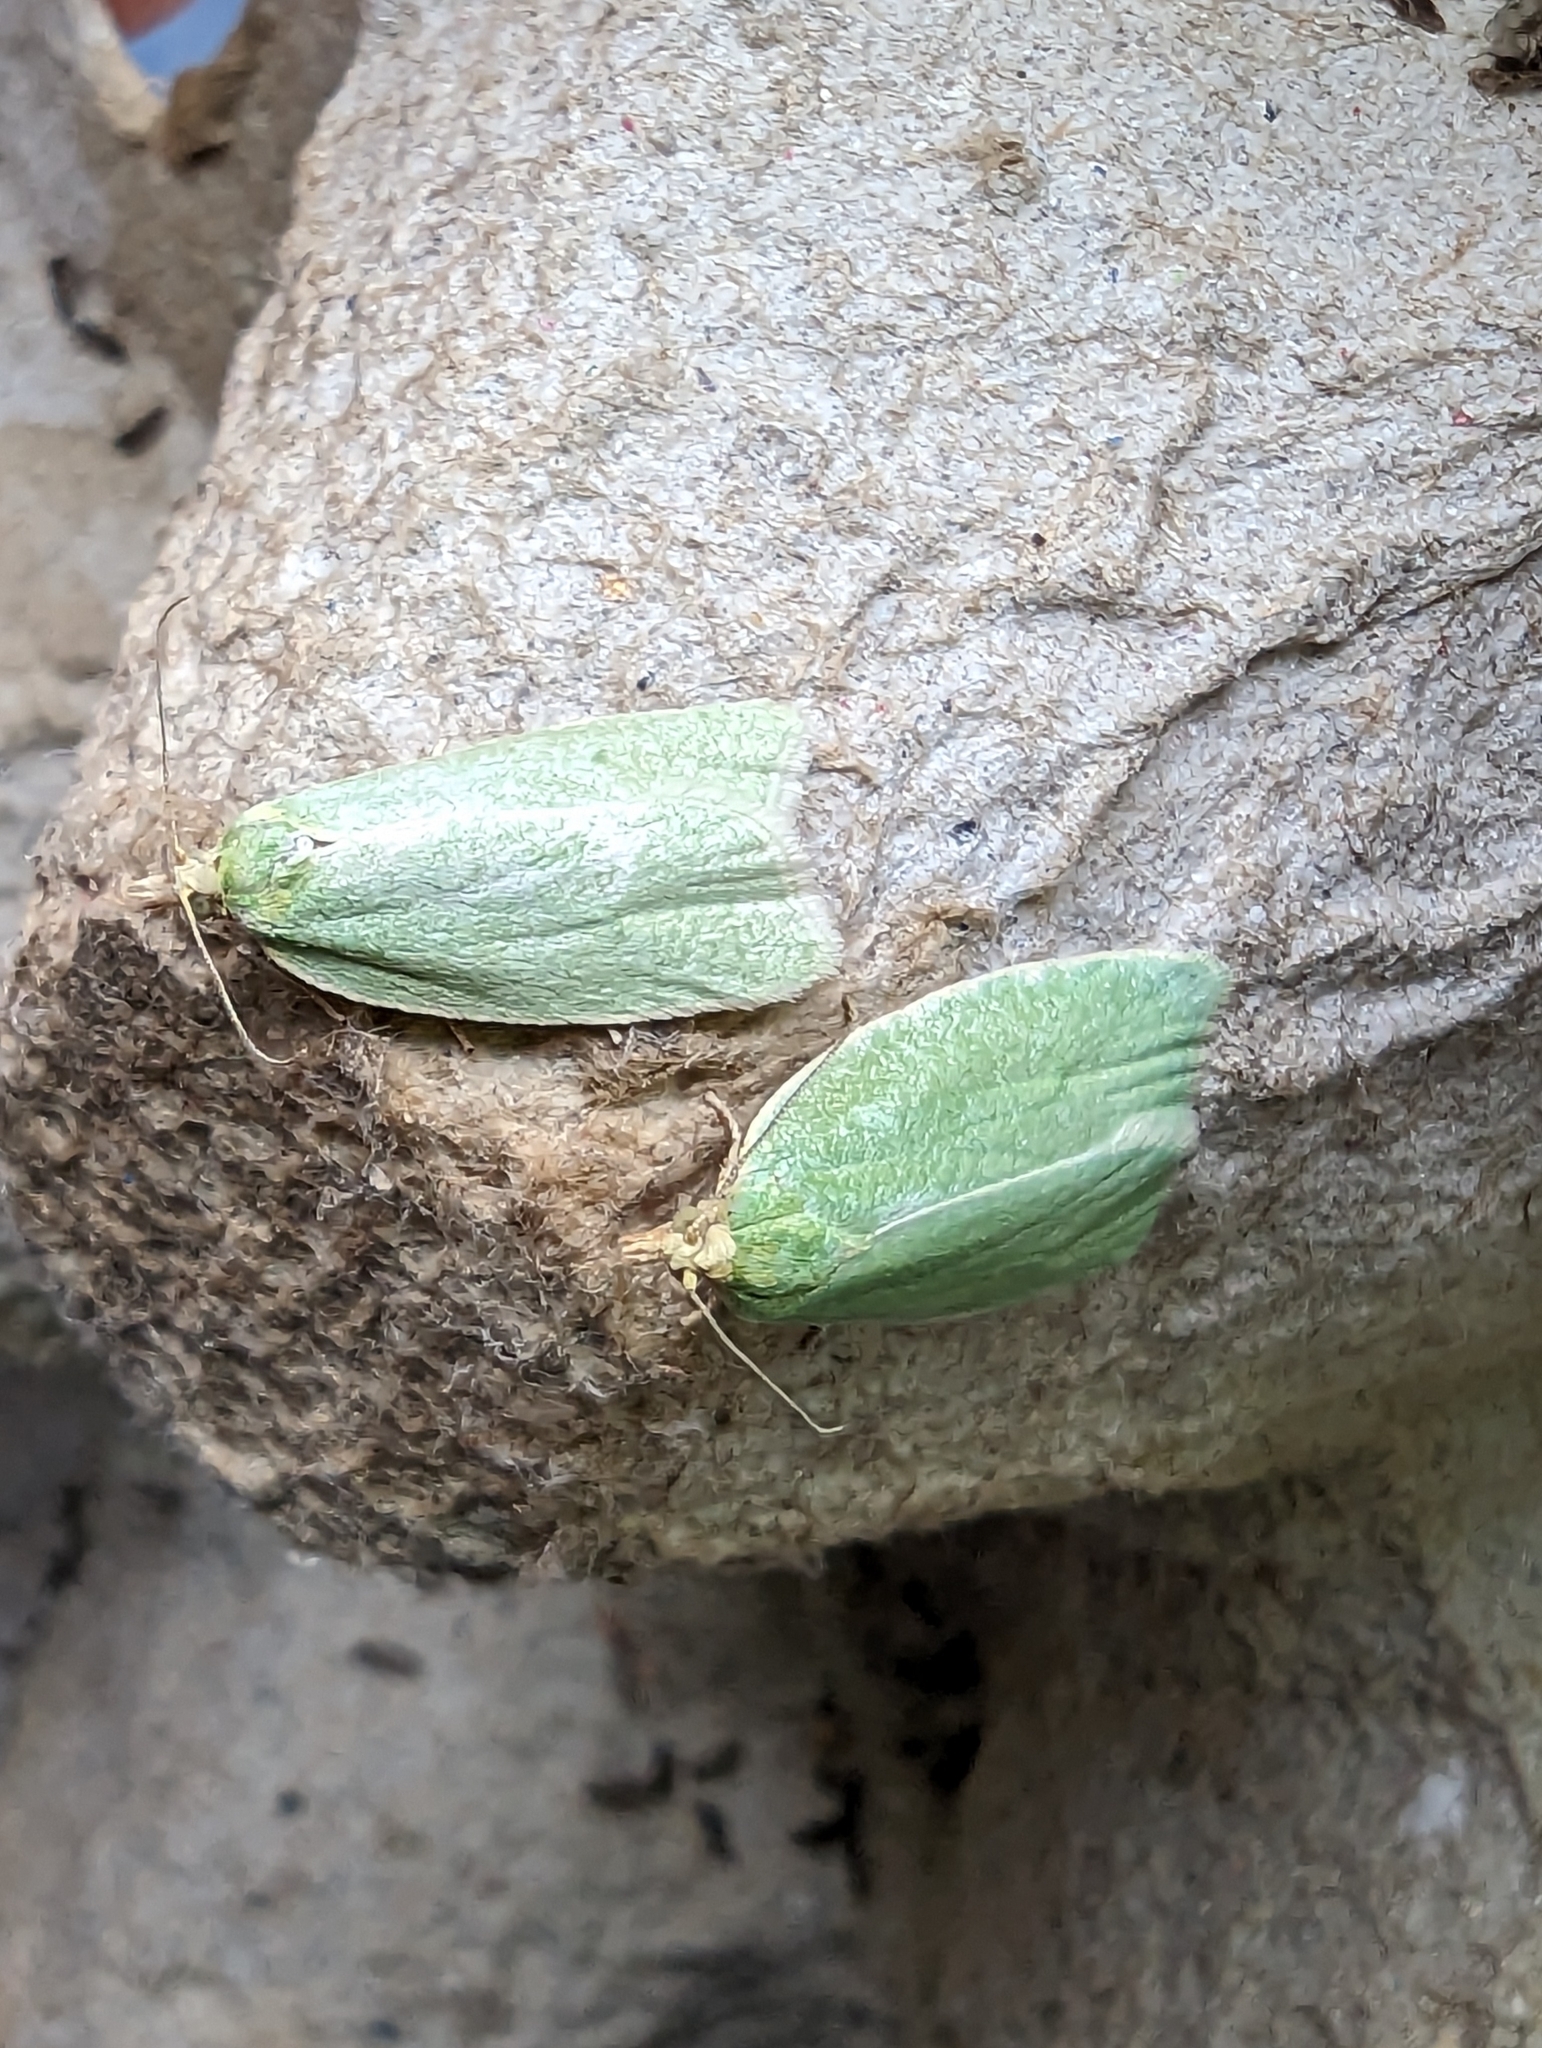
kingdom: Animalia
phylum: Arthropoda
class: Insecta
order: Lepidoptera
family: Tortricidae
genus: Tortrix
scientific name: Tortrix viridana
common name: Green oak tortrix
